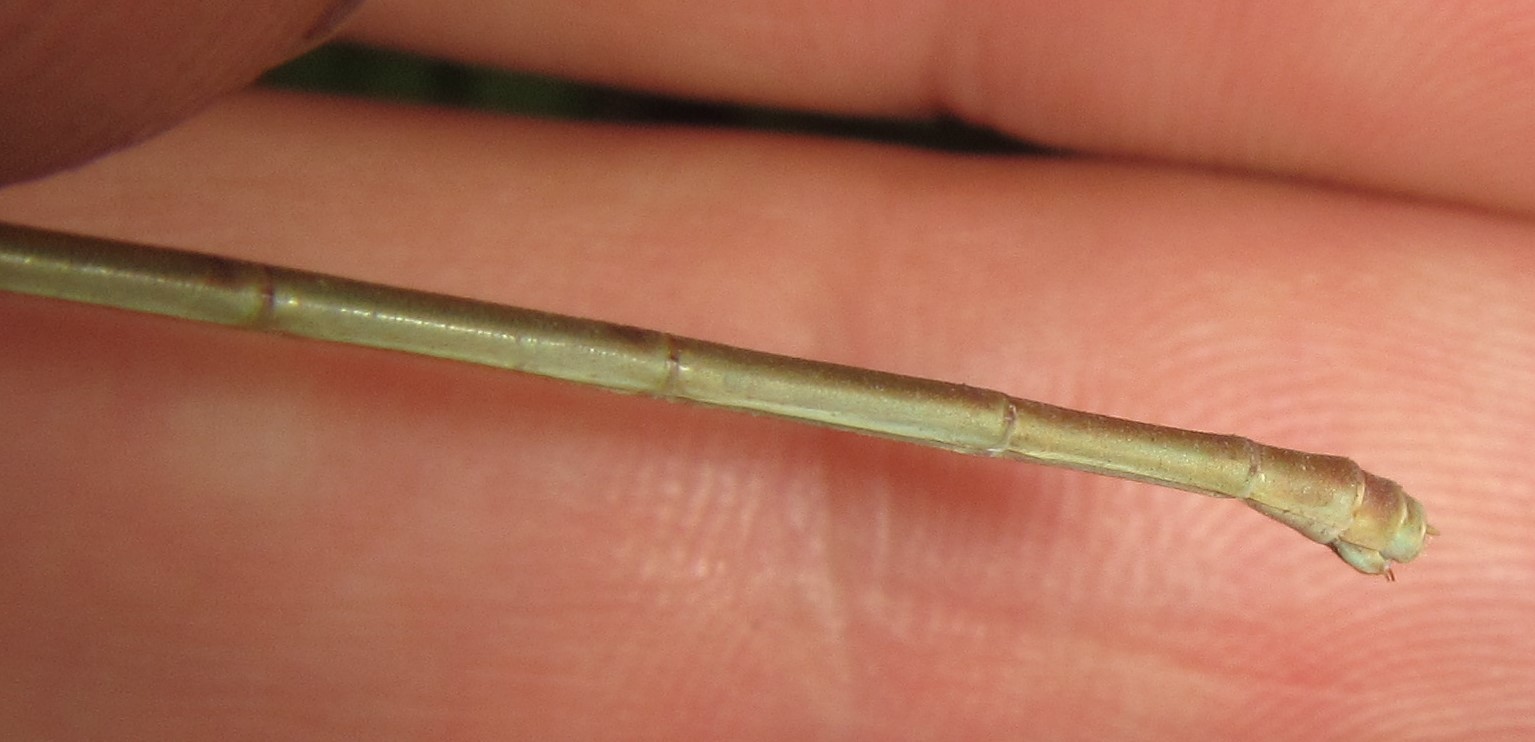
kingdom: Animalia
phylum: Arthropoda
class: Insecta
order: Odonata
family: Coenagrionidae
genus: Ceriagrion
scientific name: Ceriagrion suave
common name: Plain waxtail
